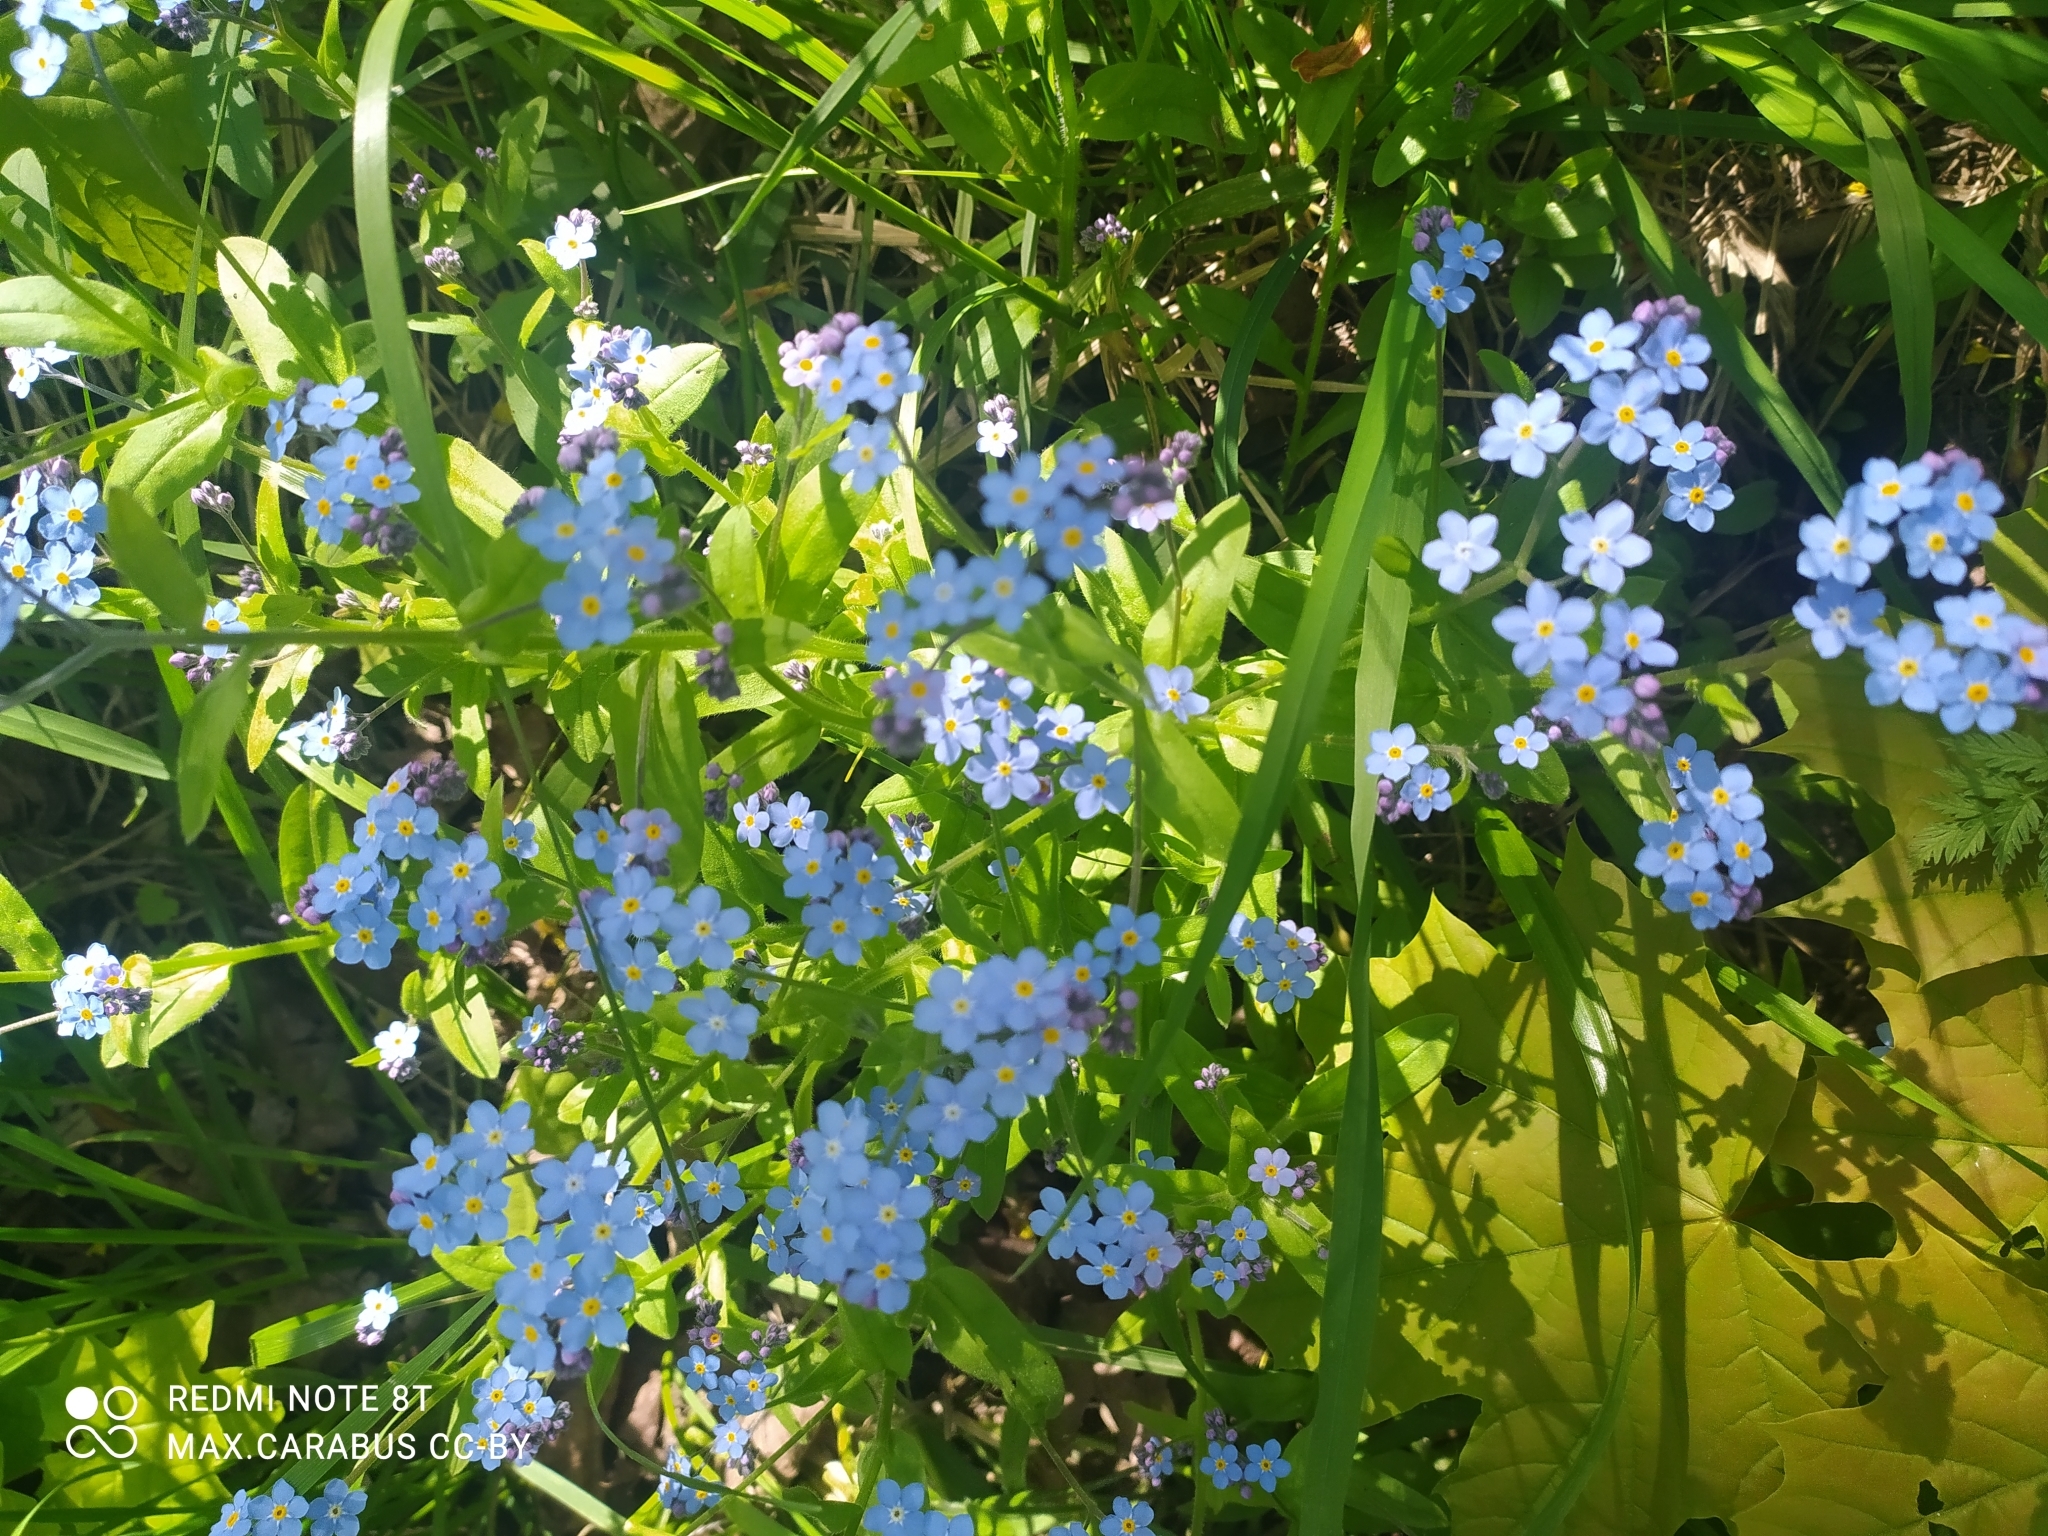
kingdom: Plantae
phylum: Tracheophyta
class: Magnoliopsida
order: Boraginales
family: Boraginaceae
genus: Myosotis
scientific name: Myosotis sylvatica
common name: Wood forget-me-not
